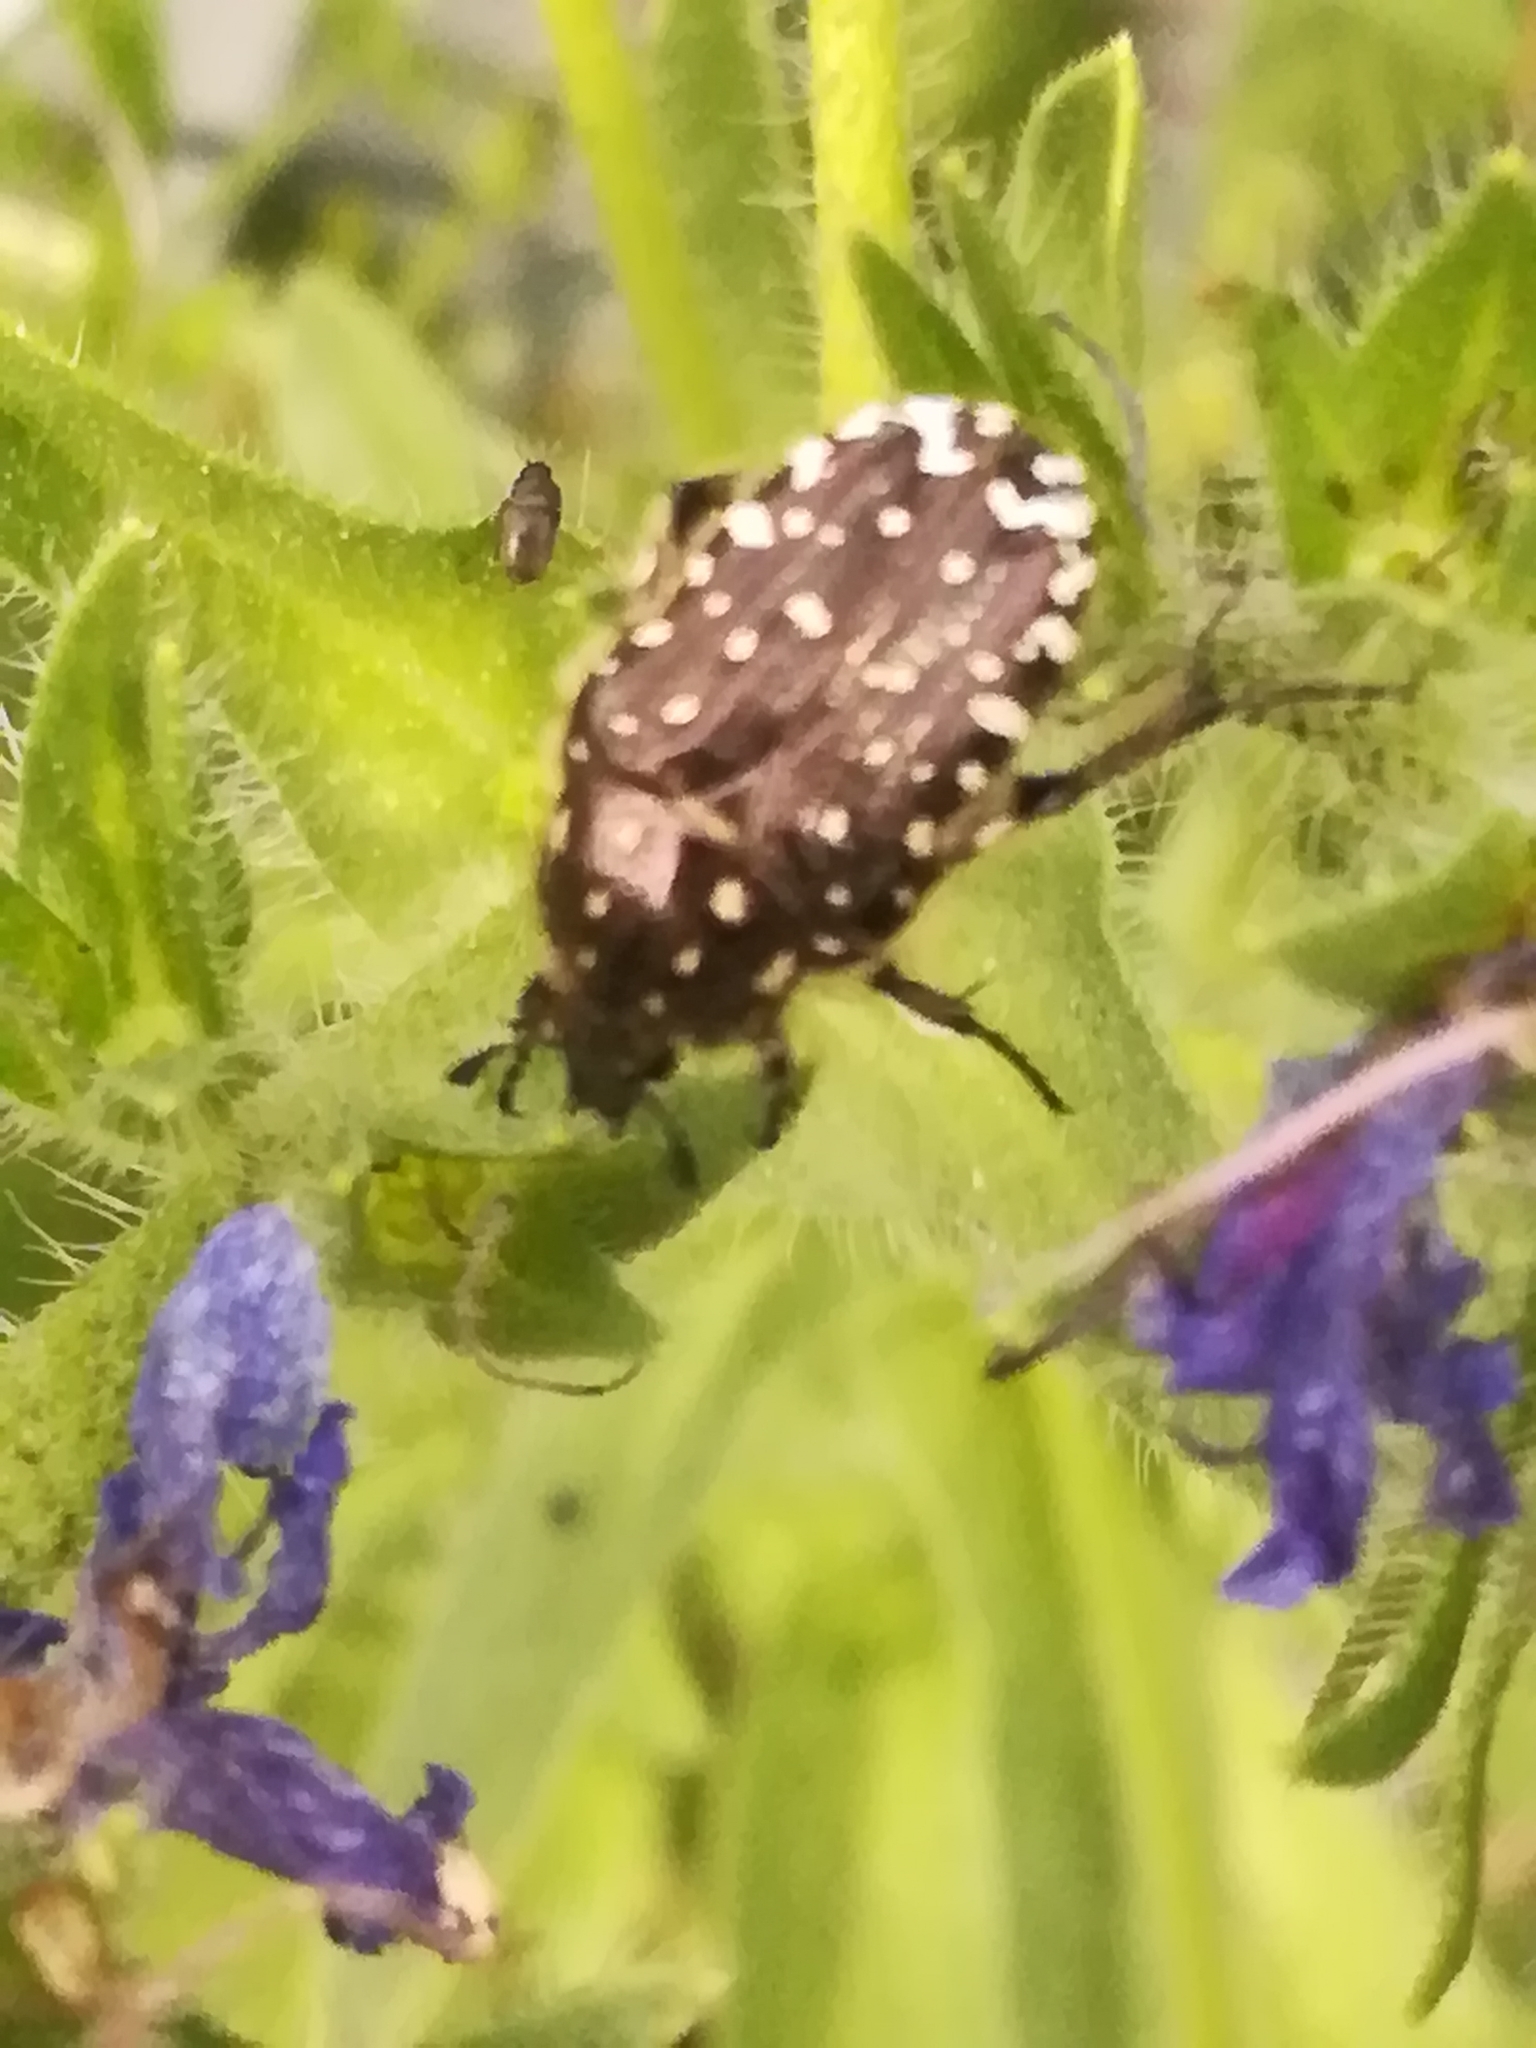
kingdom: Animalia
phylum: Arthropoda
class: Insecta
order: Coleoptera
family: Scarabaeidae
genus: Oxythyrea
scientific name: Oxythyrea funesta
